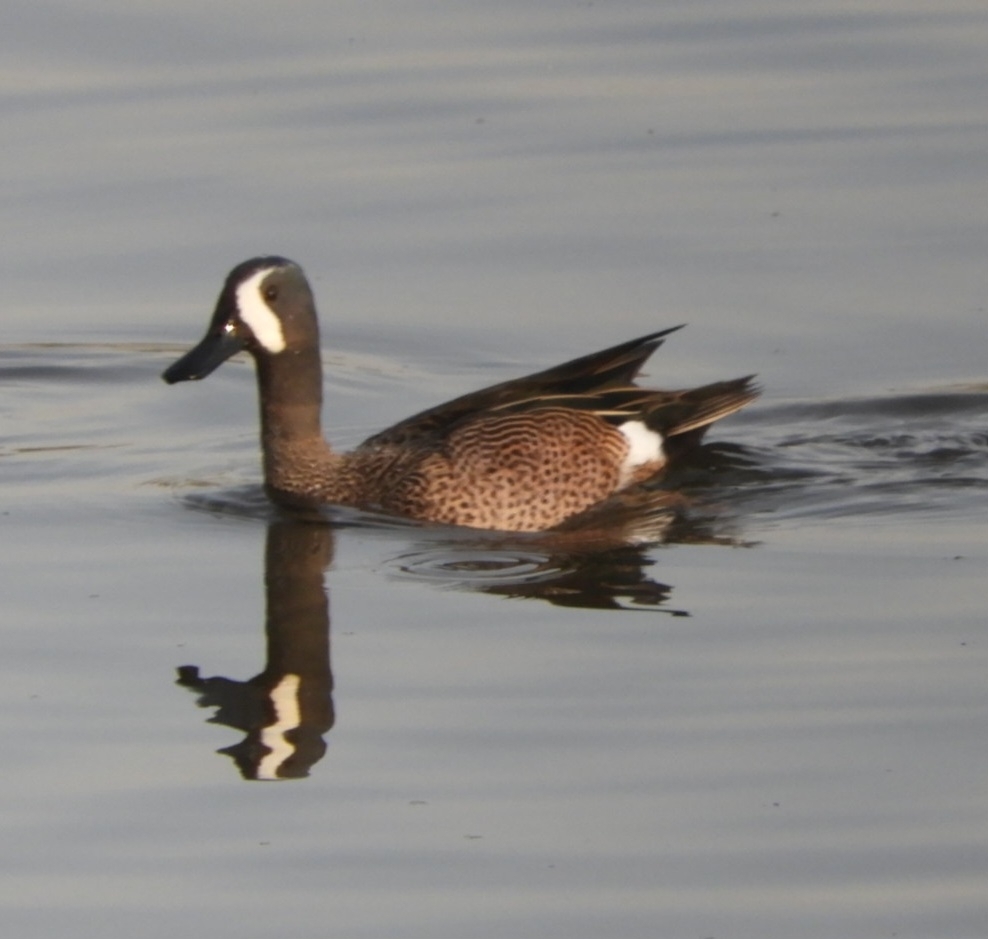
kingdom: Animalia
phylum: Chordata
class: Aves
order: Anseriformes
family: Anatidae
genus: Spatula
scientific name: Spatula discors
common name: Blue-winged teal
